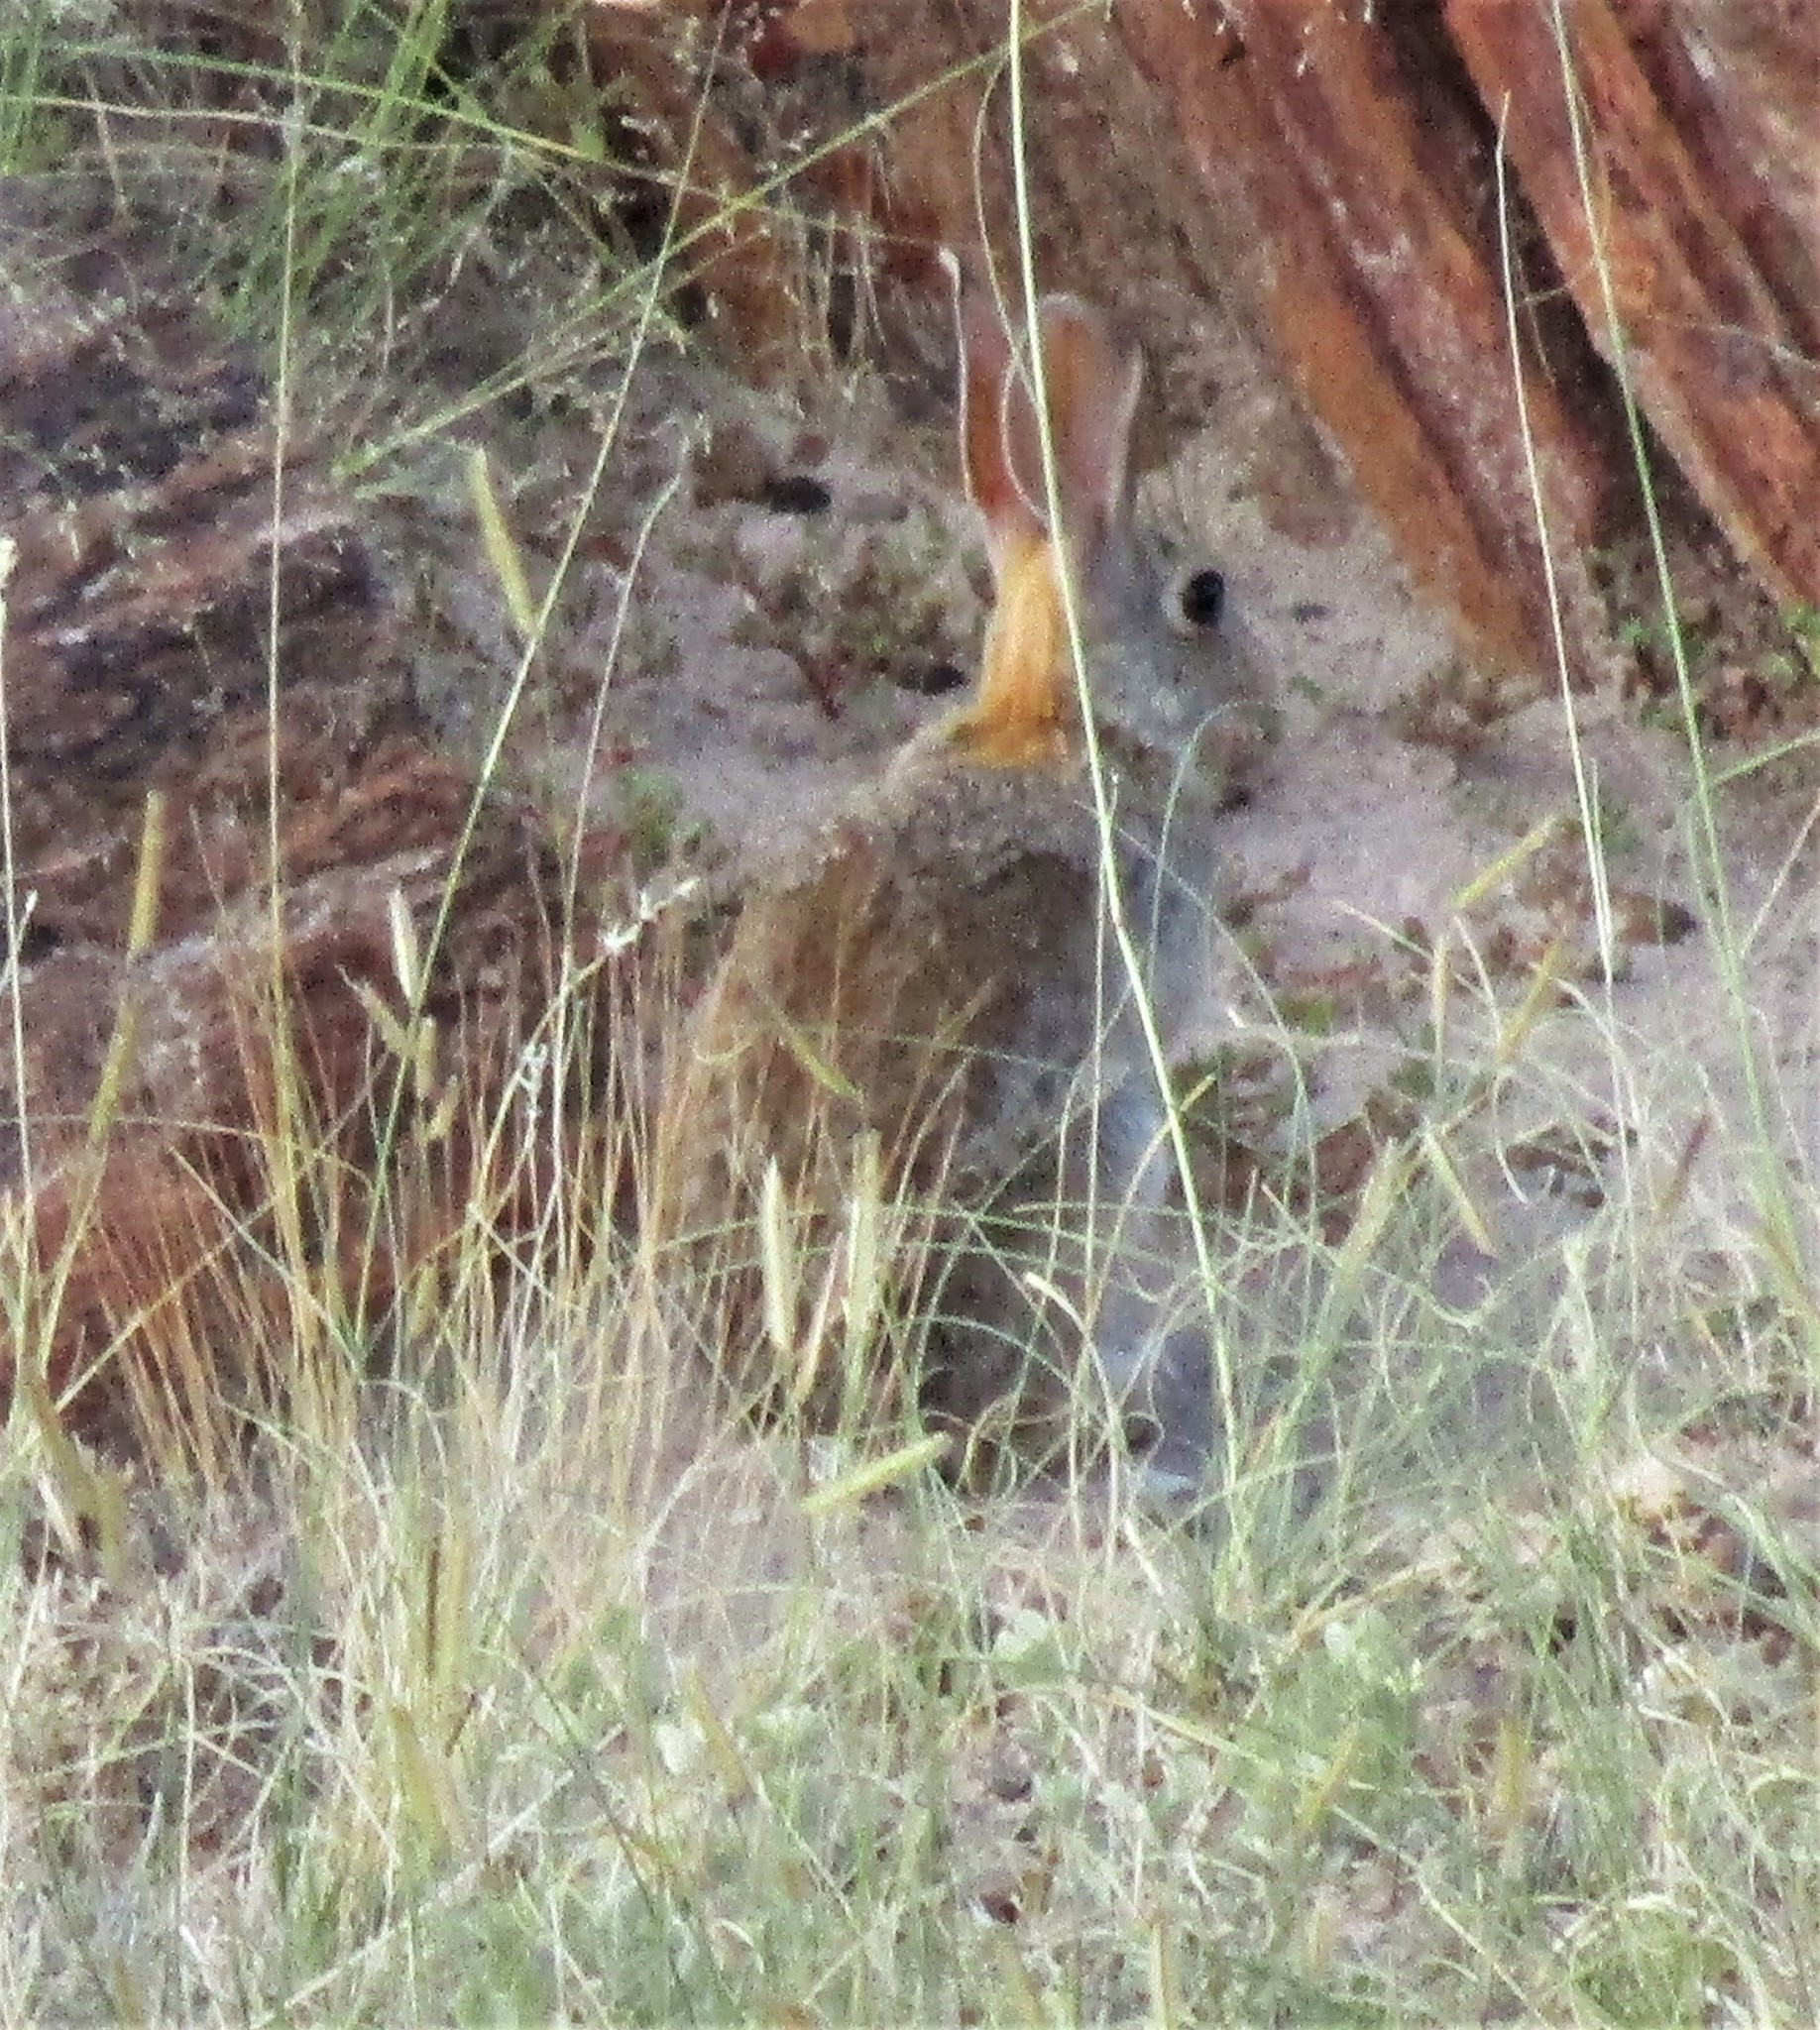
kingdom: Animalia
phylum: Chordata
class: Mammalia
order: Lagomorpha
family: Leporidae
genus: Sylvilagus
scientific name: Sylvilagus audubonii
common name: Desert cottontail
